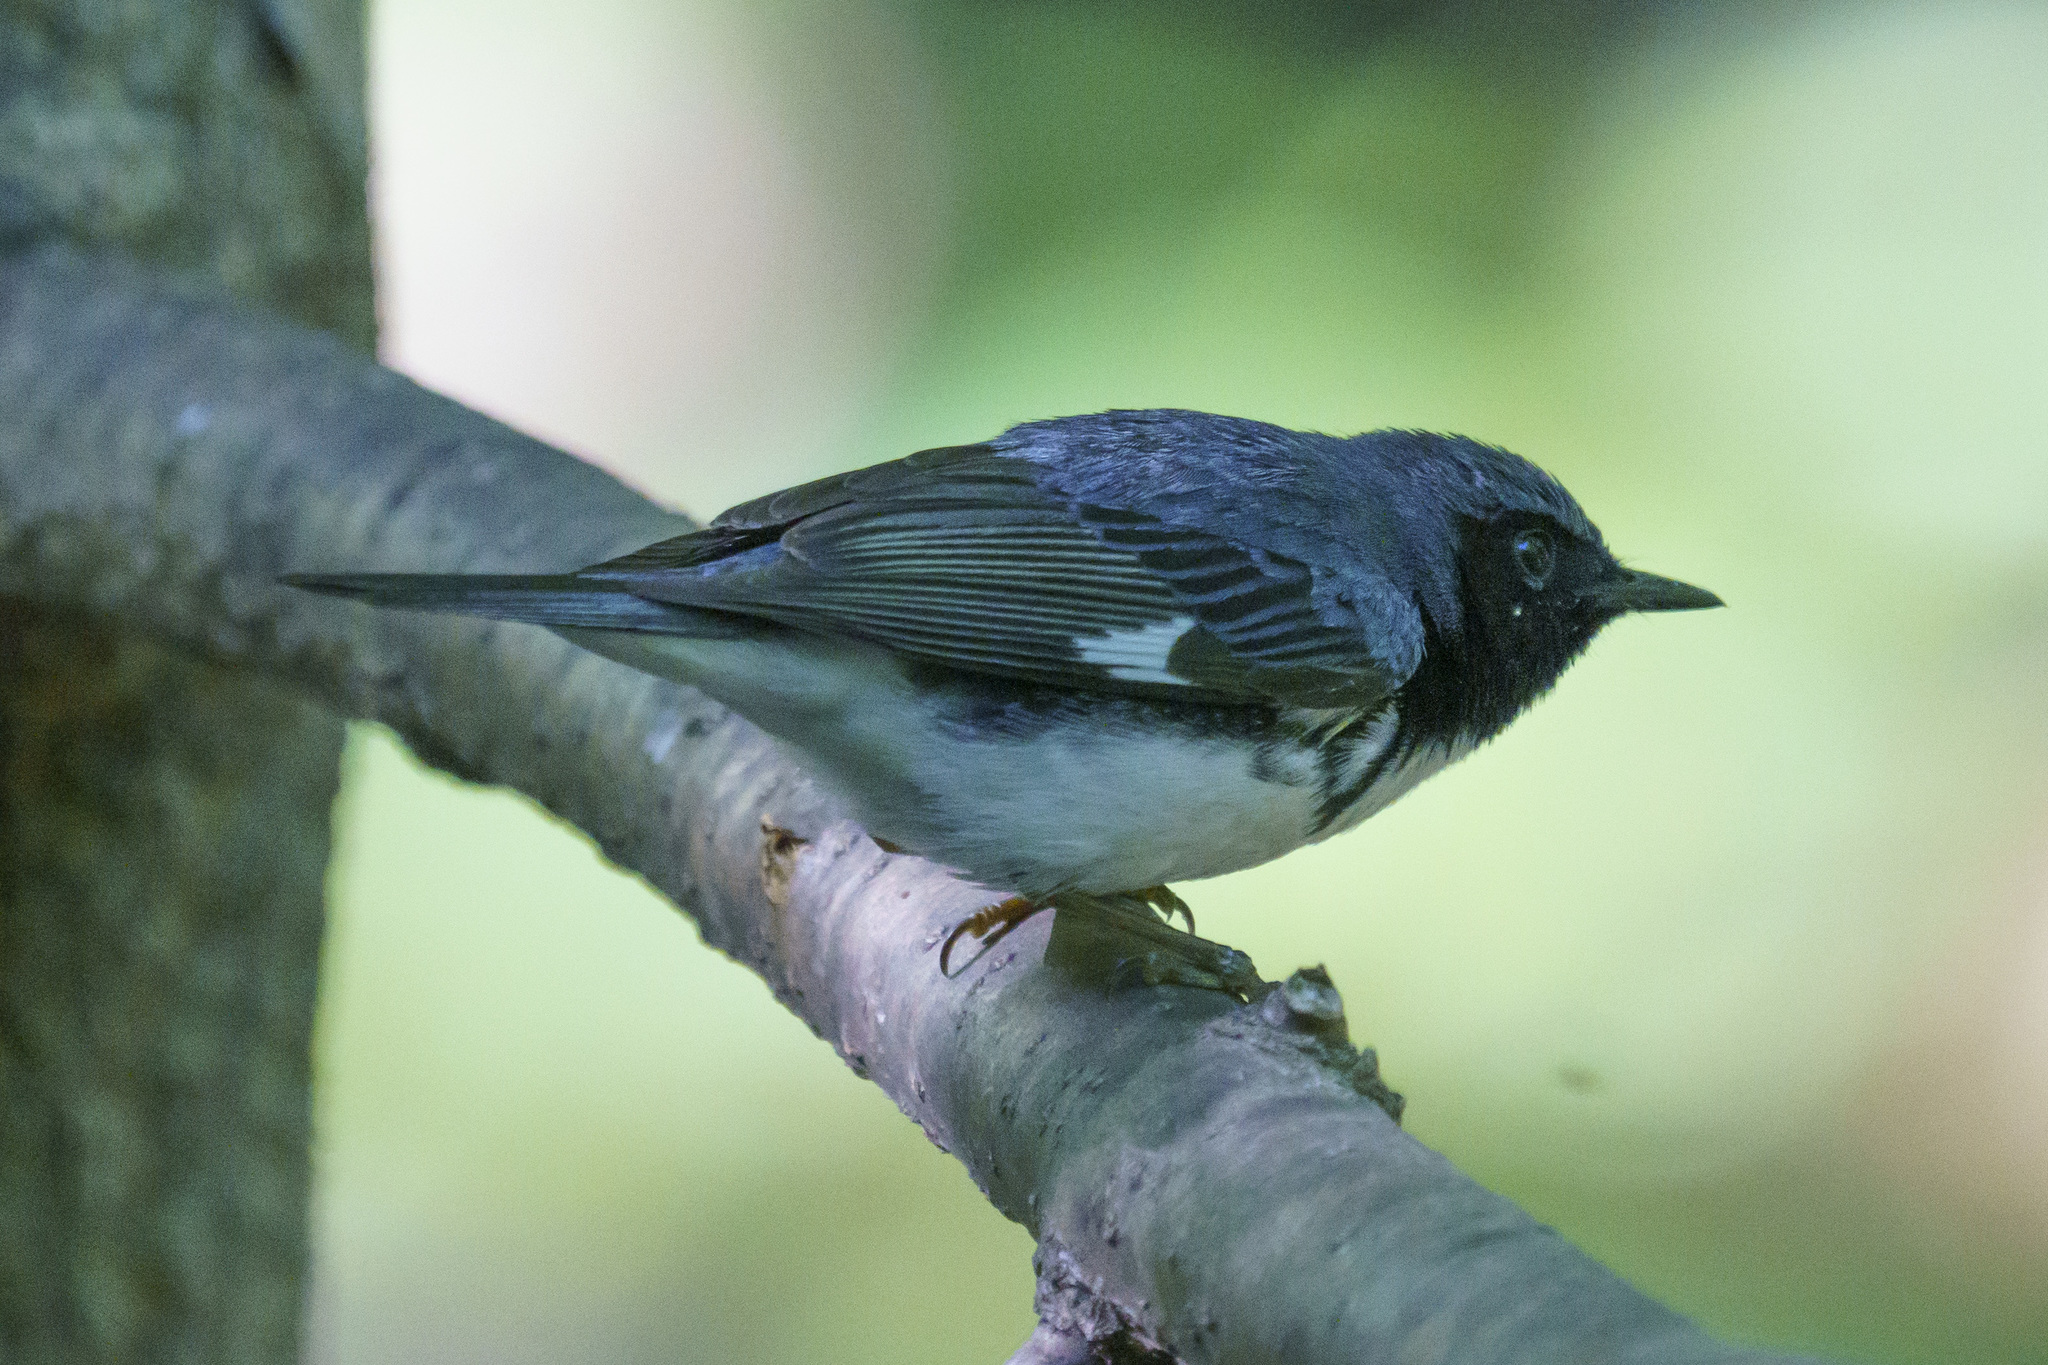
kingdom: Animalia
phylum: Chordata
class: Aves
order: Passeriformes
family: Parulidae
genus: Setophaga
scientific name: Setophaga caerulescens
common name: Black-throated blue warbler
